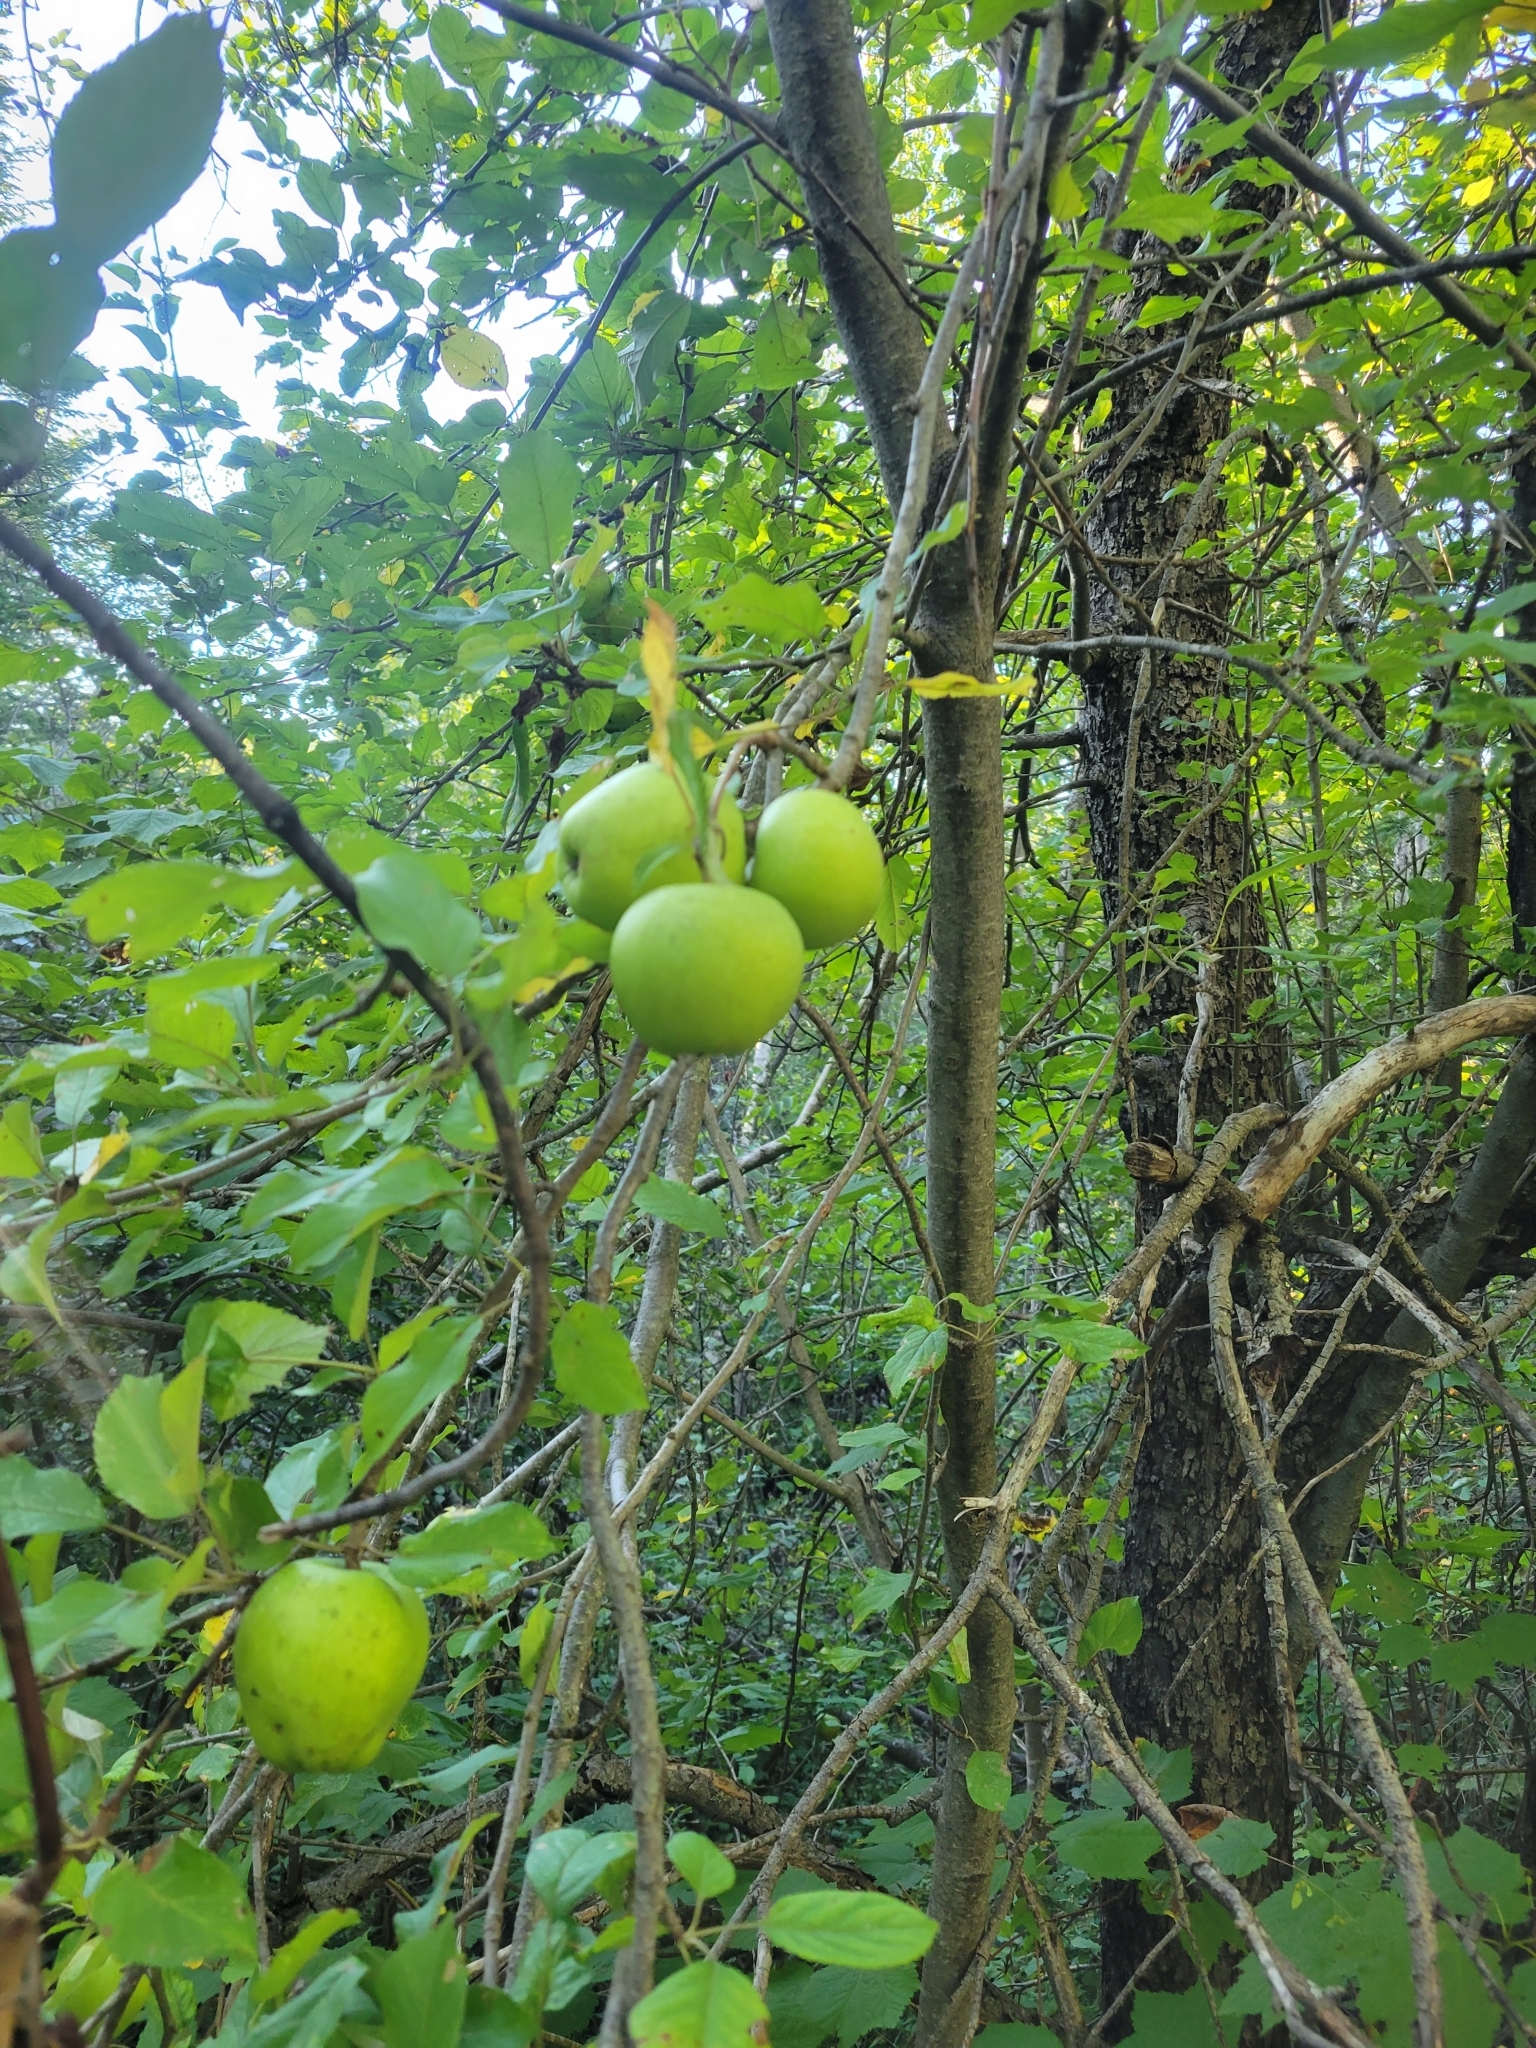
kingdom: Plantae
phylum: Tracheophyta
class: Magnoliopsida
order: Rosales
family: Rosaceae
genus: Malus
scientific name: Malus domestica
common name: Apple
